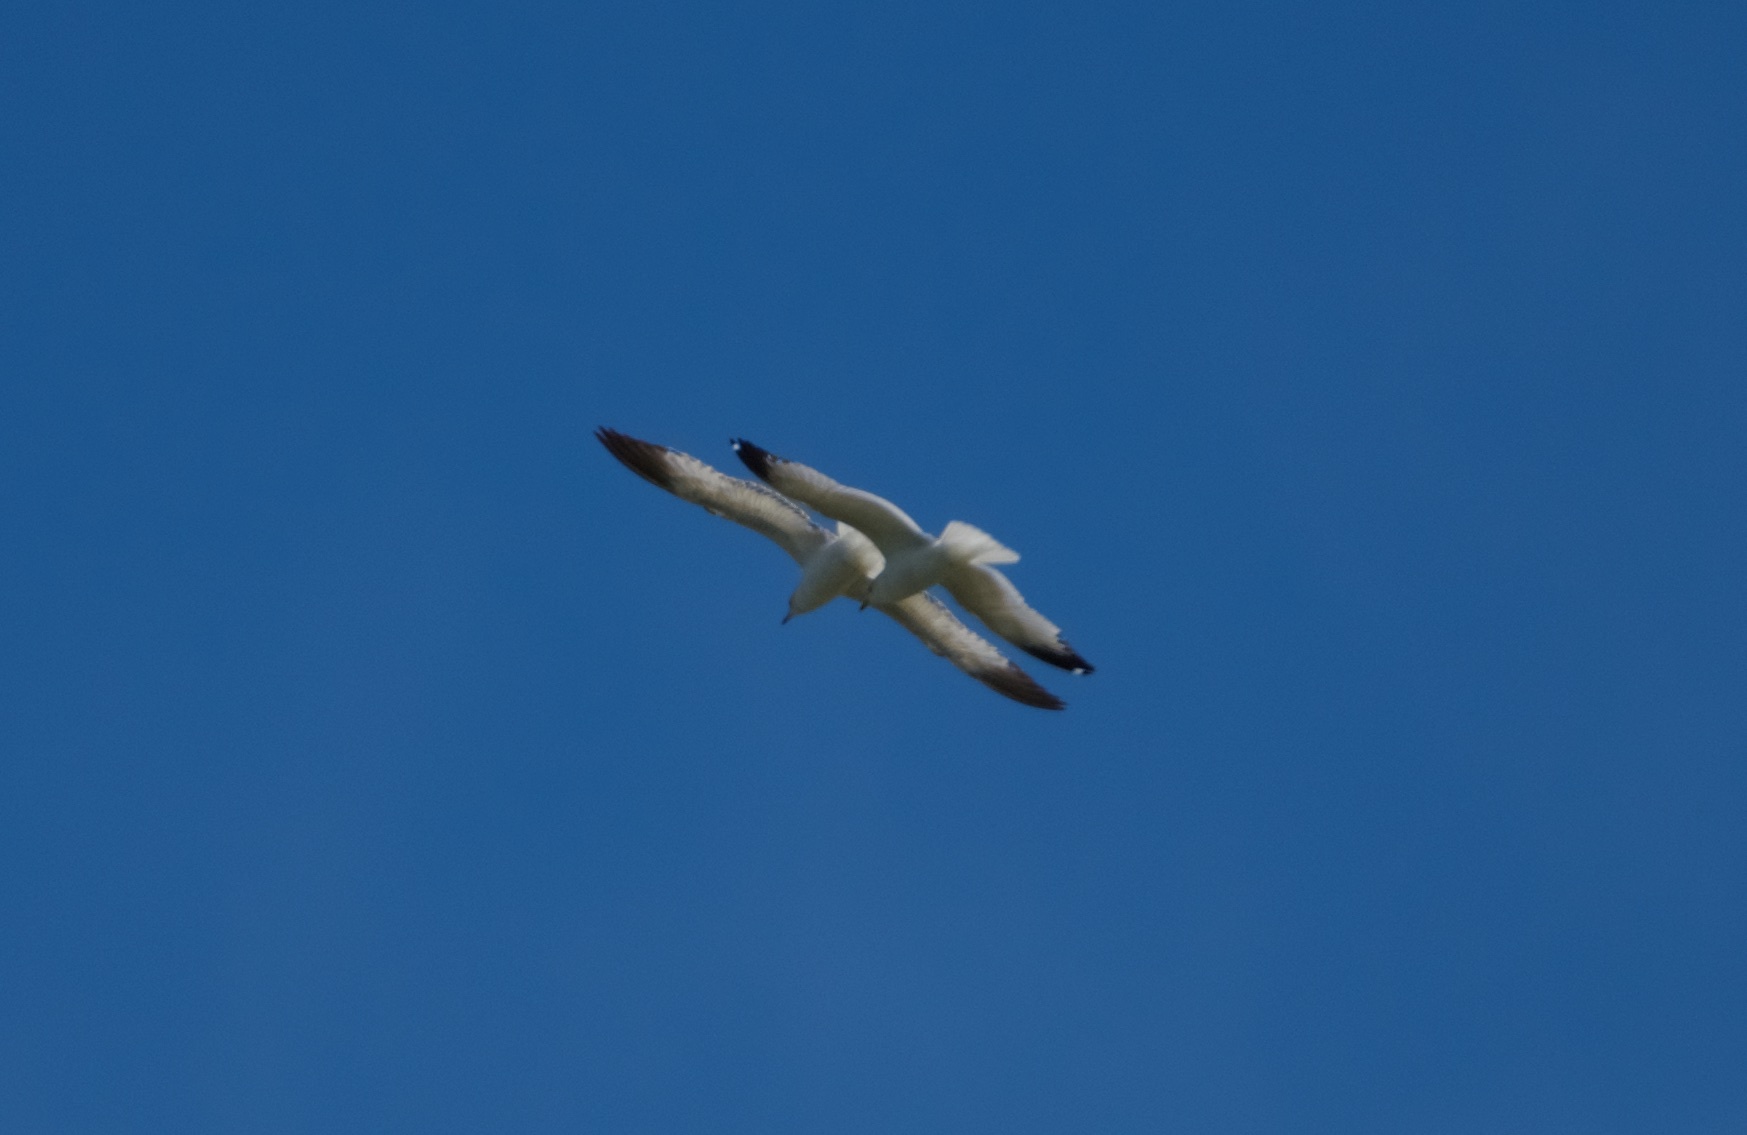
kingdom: Animalia
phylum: Chordata
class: Aves
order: Charadriiformes
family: Laridae
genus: Larus
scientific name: Larus delawarensis
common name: Ring-billed gull
